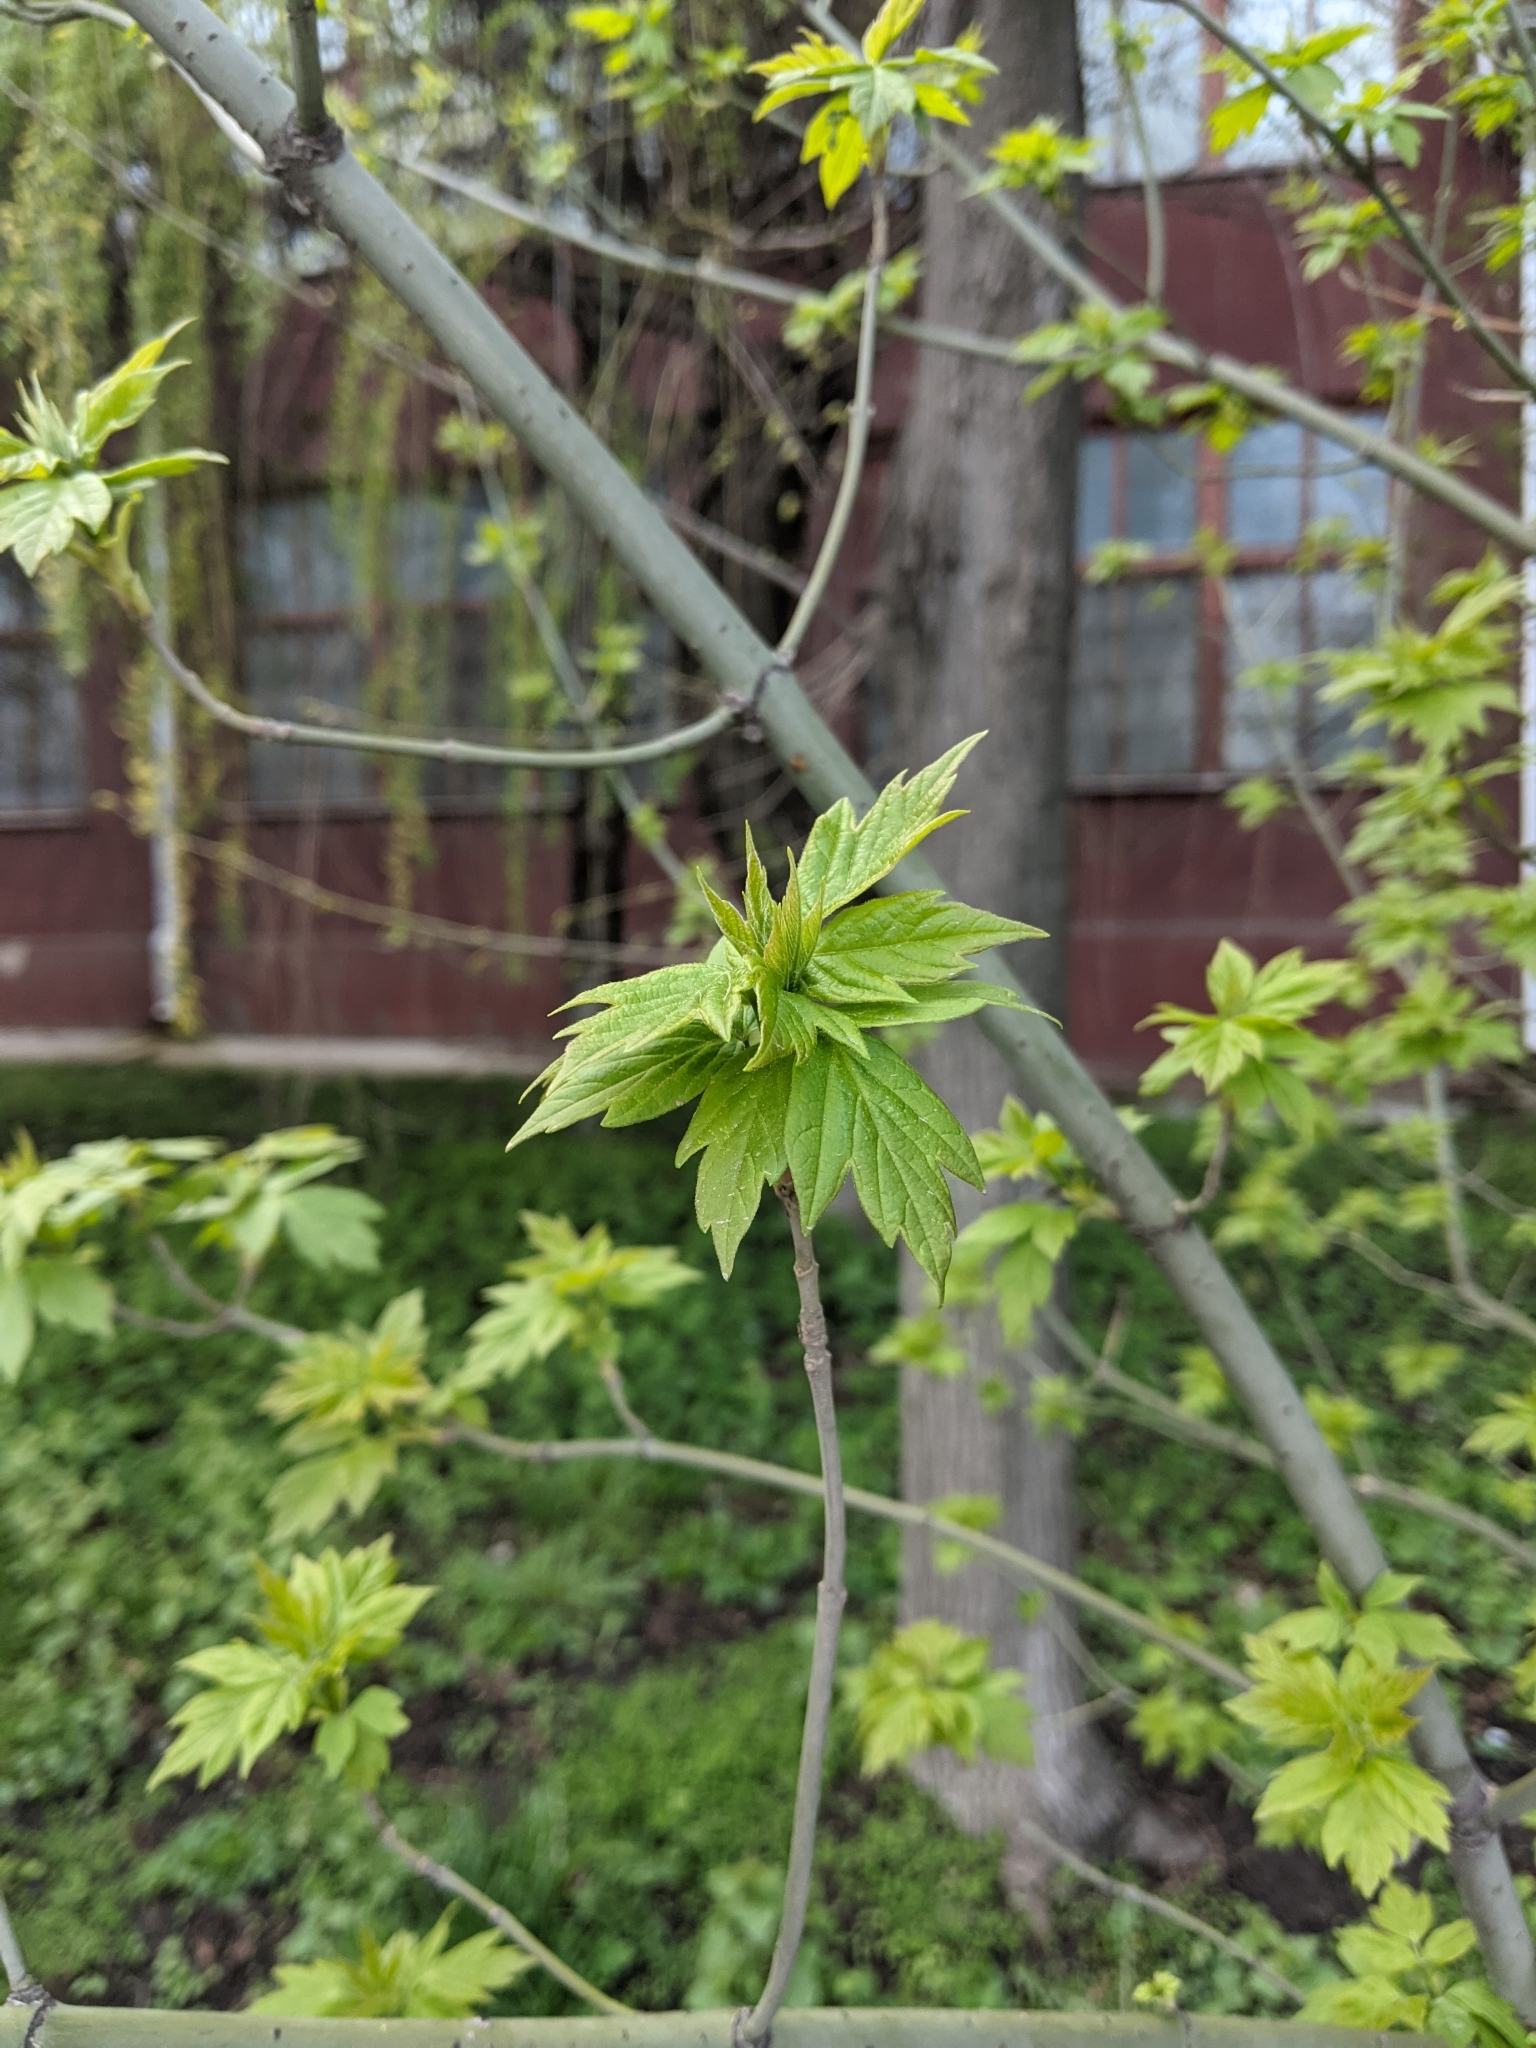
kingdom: Plantae
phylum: Tracheophyta
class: Magnoliopsida
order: Sapindales
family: Sapindaceae
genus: Acer
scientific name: Acer negundo
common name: Ashleaf maple
